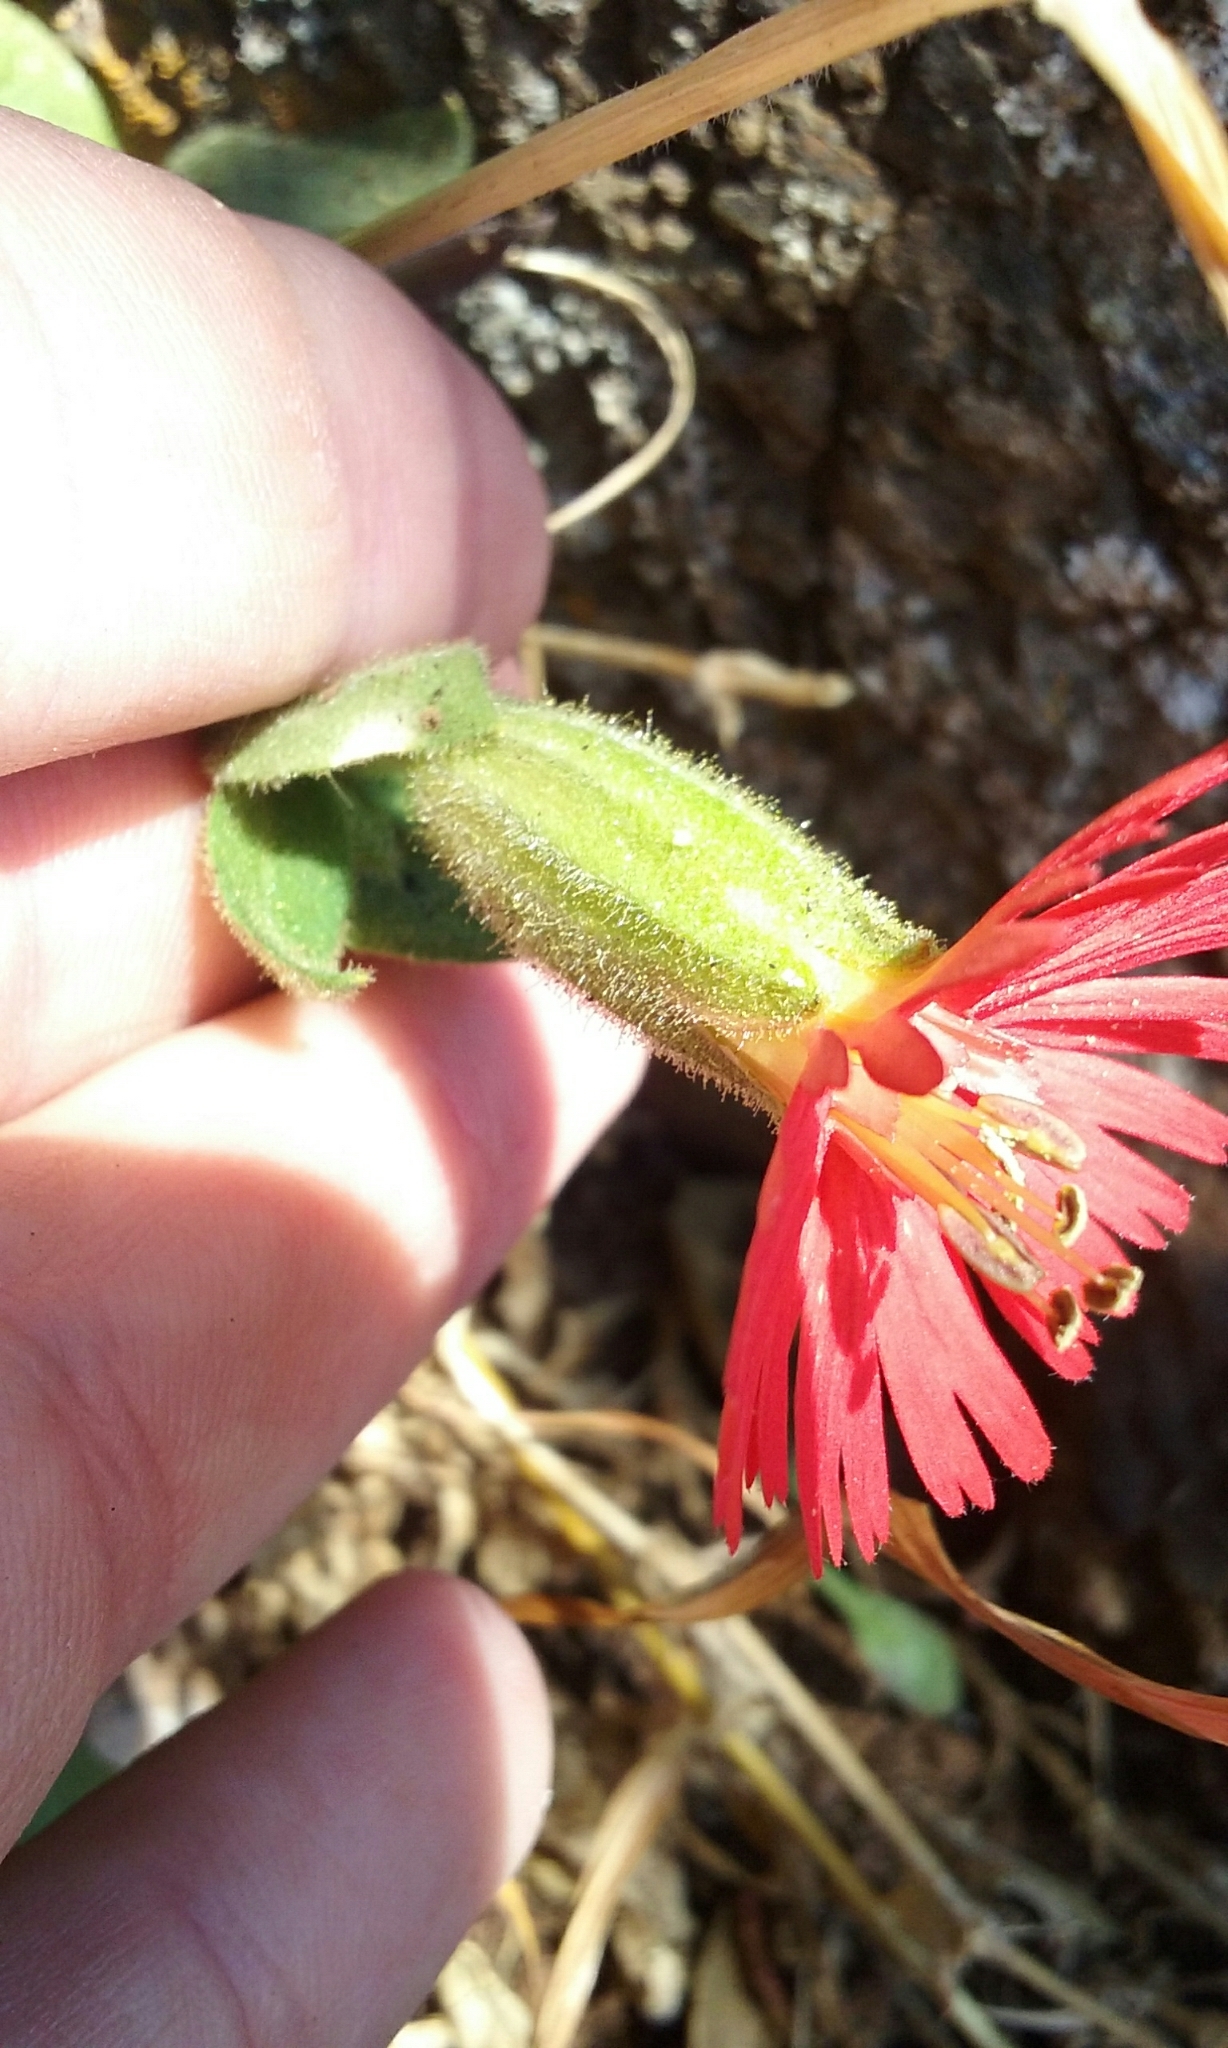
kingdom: Plantae
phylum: Tracheophyta
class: Magnoliopsida
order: Caryophyllales
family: Caryophyllaceae
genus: Silene
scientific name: Silene laciniata
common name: Indian-pink
